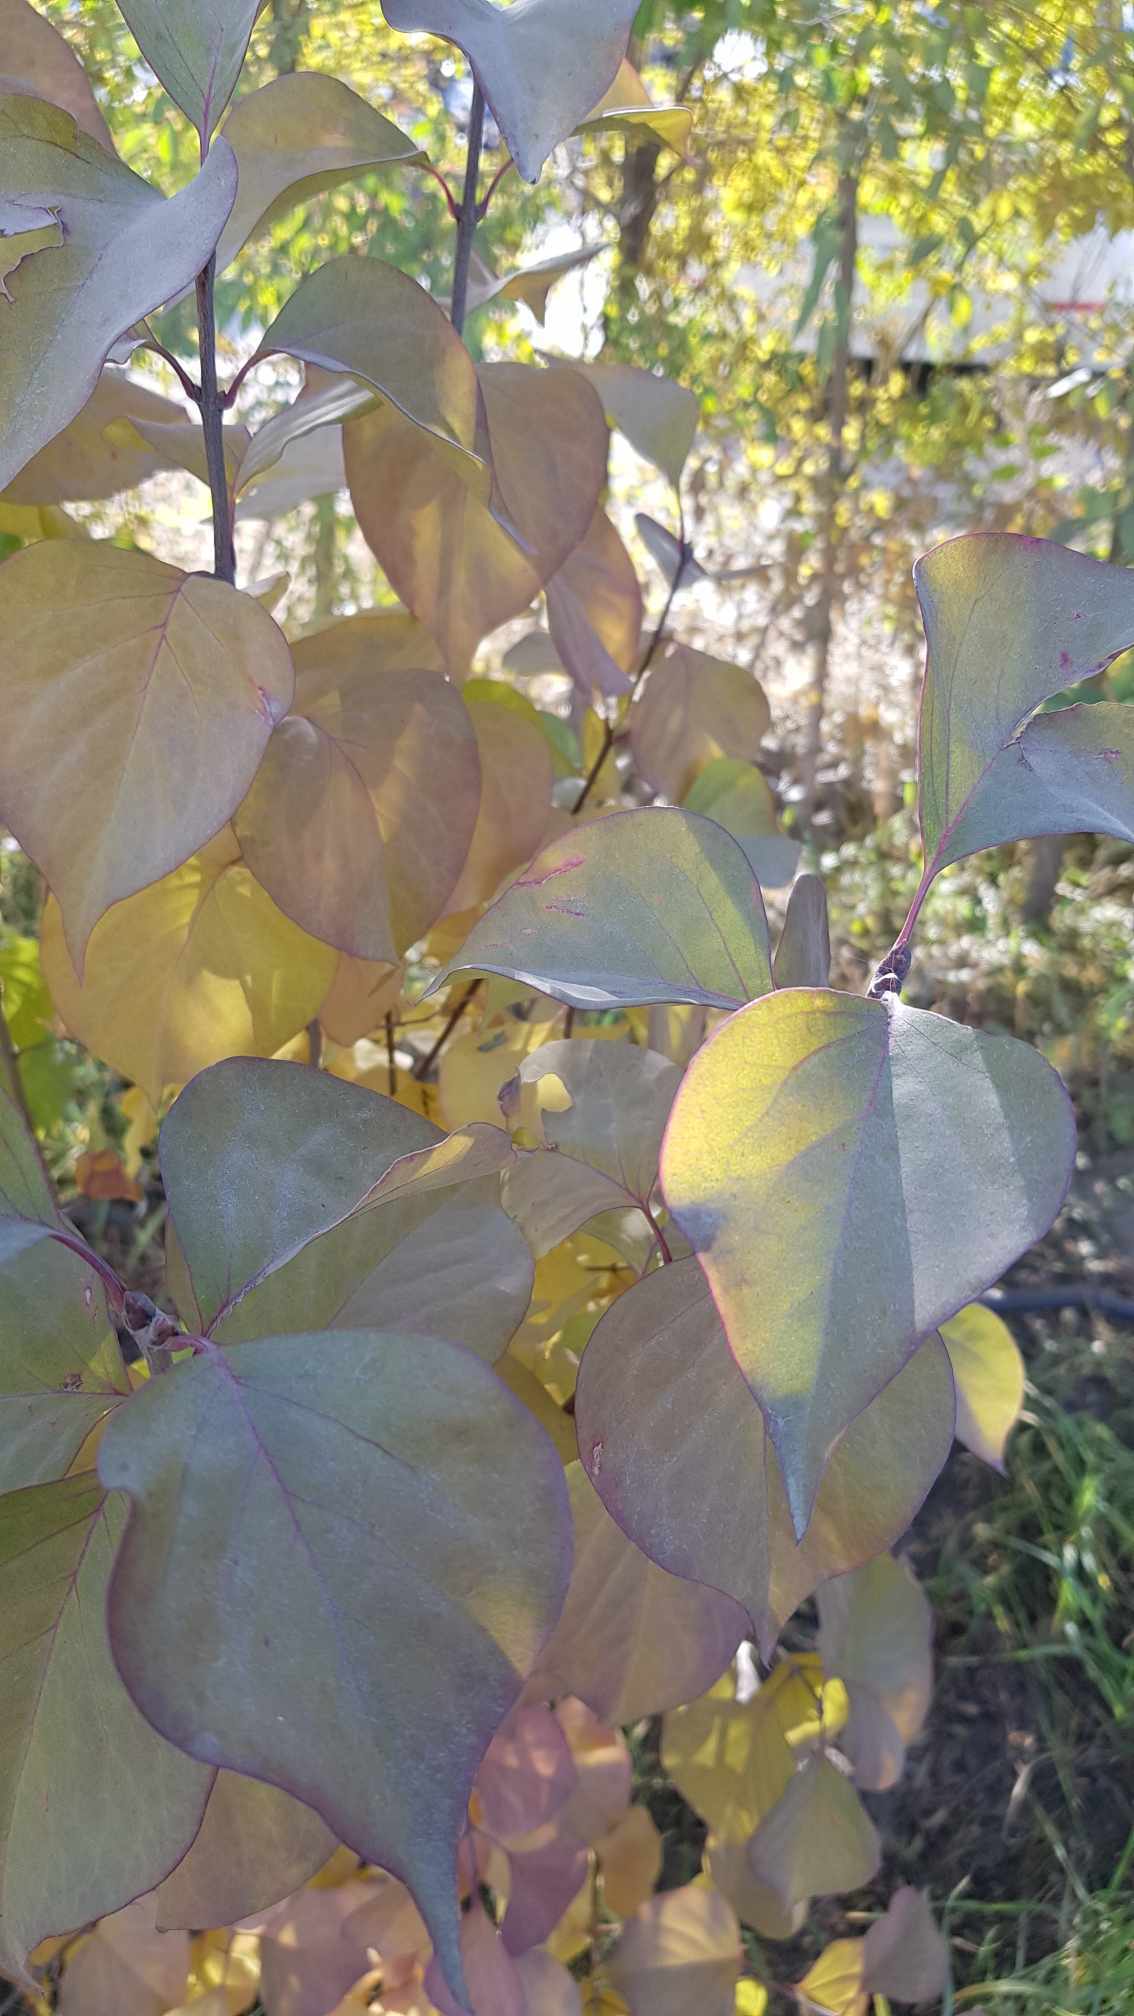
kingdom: Plantae
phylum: Tracheophyta
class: Magnoliopsida
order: Rosales
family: Rosaceae
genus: Prunus
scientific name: Prunus armeniaca
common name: Apricot
